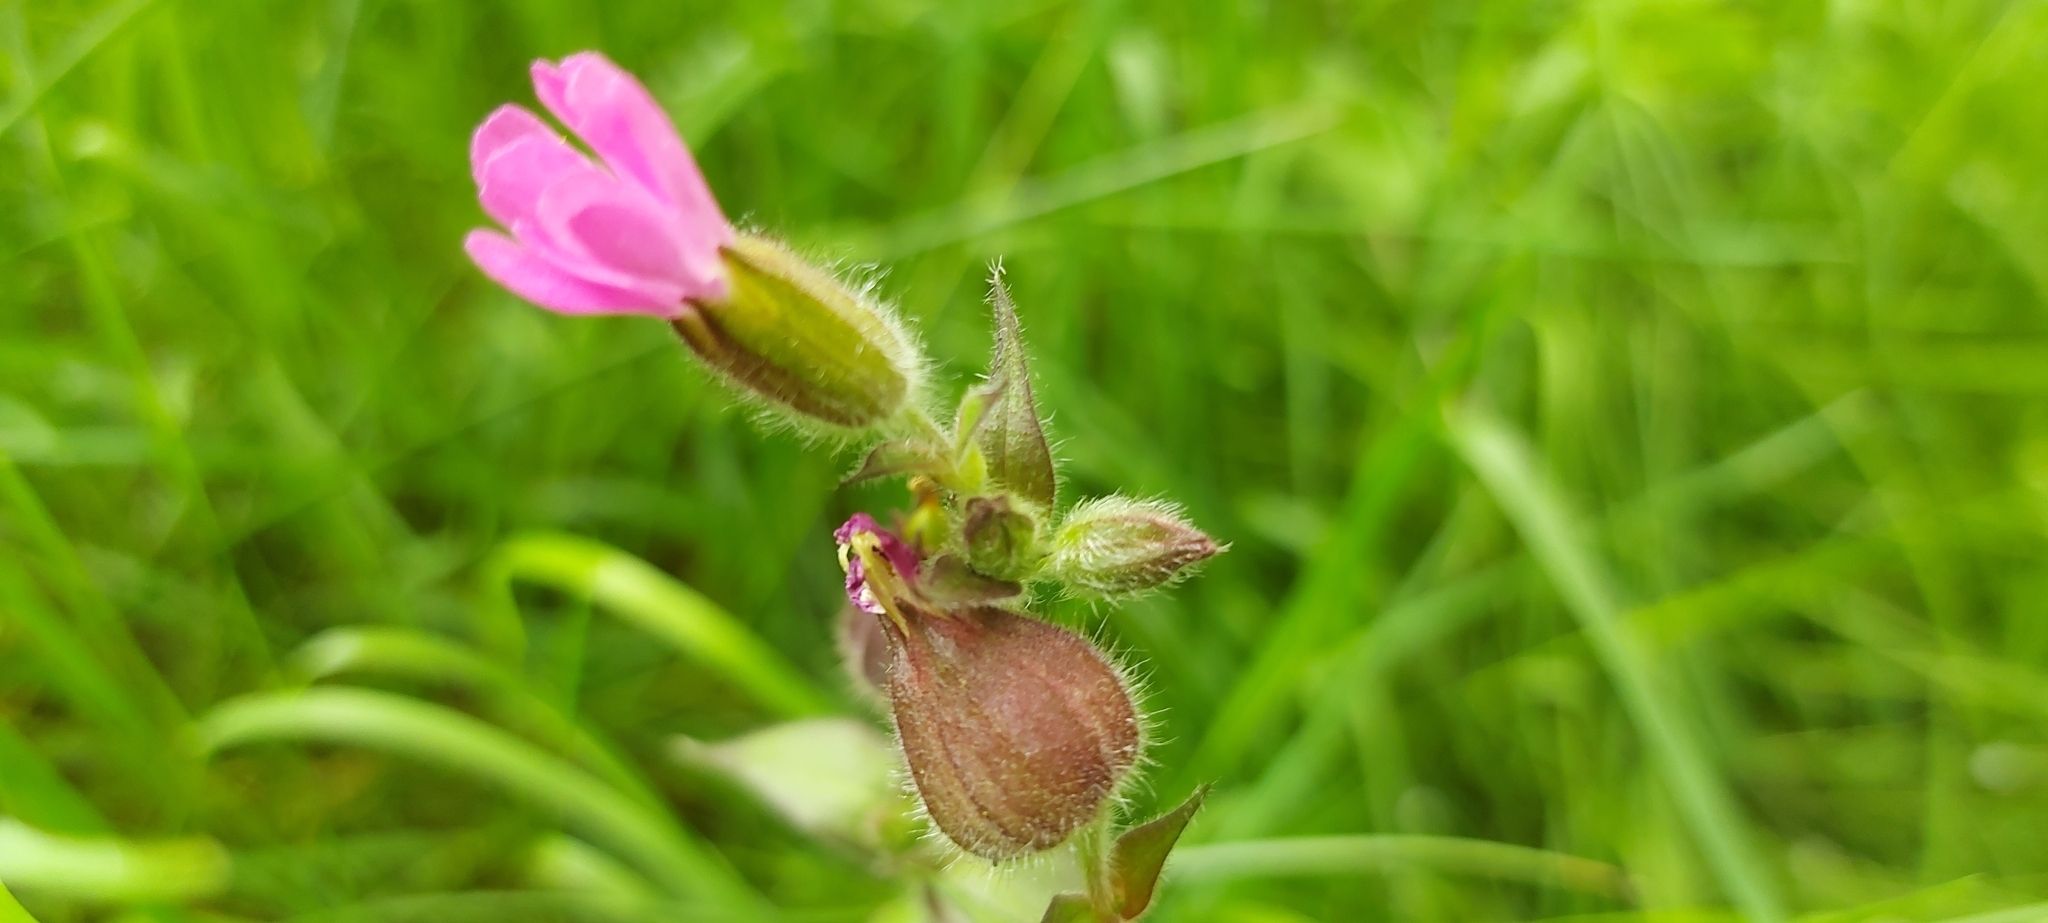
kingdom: Plantae
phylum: Tracheophyta
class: Magnoliopsida
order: Caryophyllales
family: Caryophyllaceae
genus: Silene
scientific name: Silene dioica
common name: Red campion
